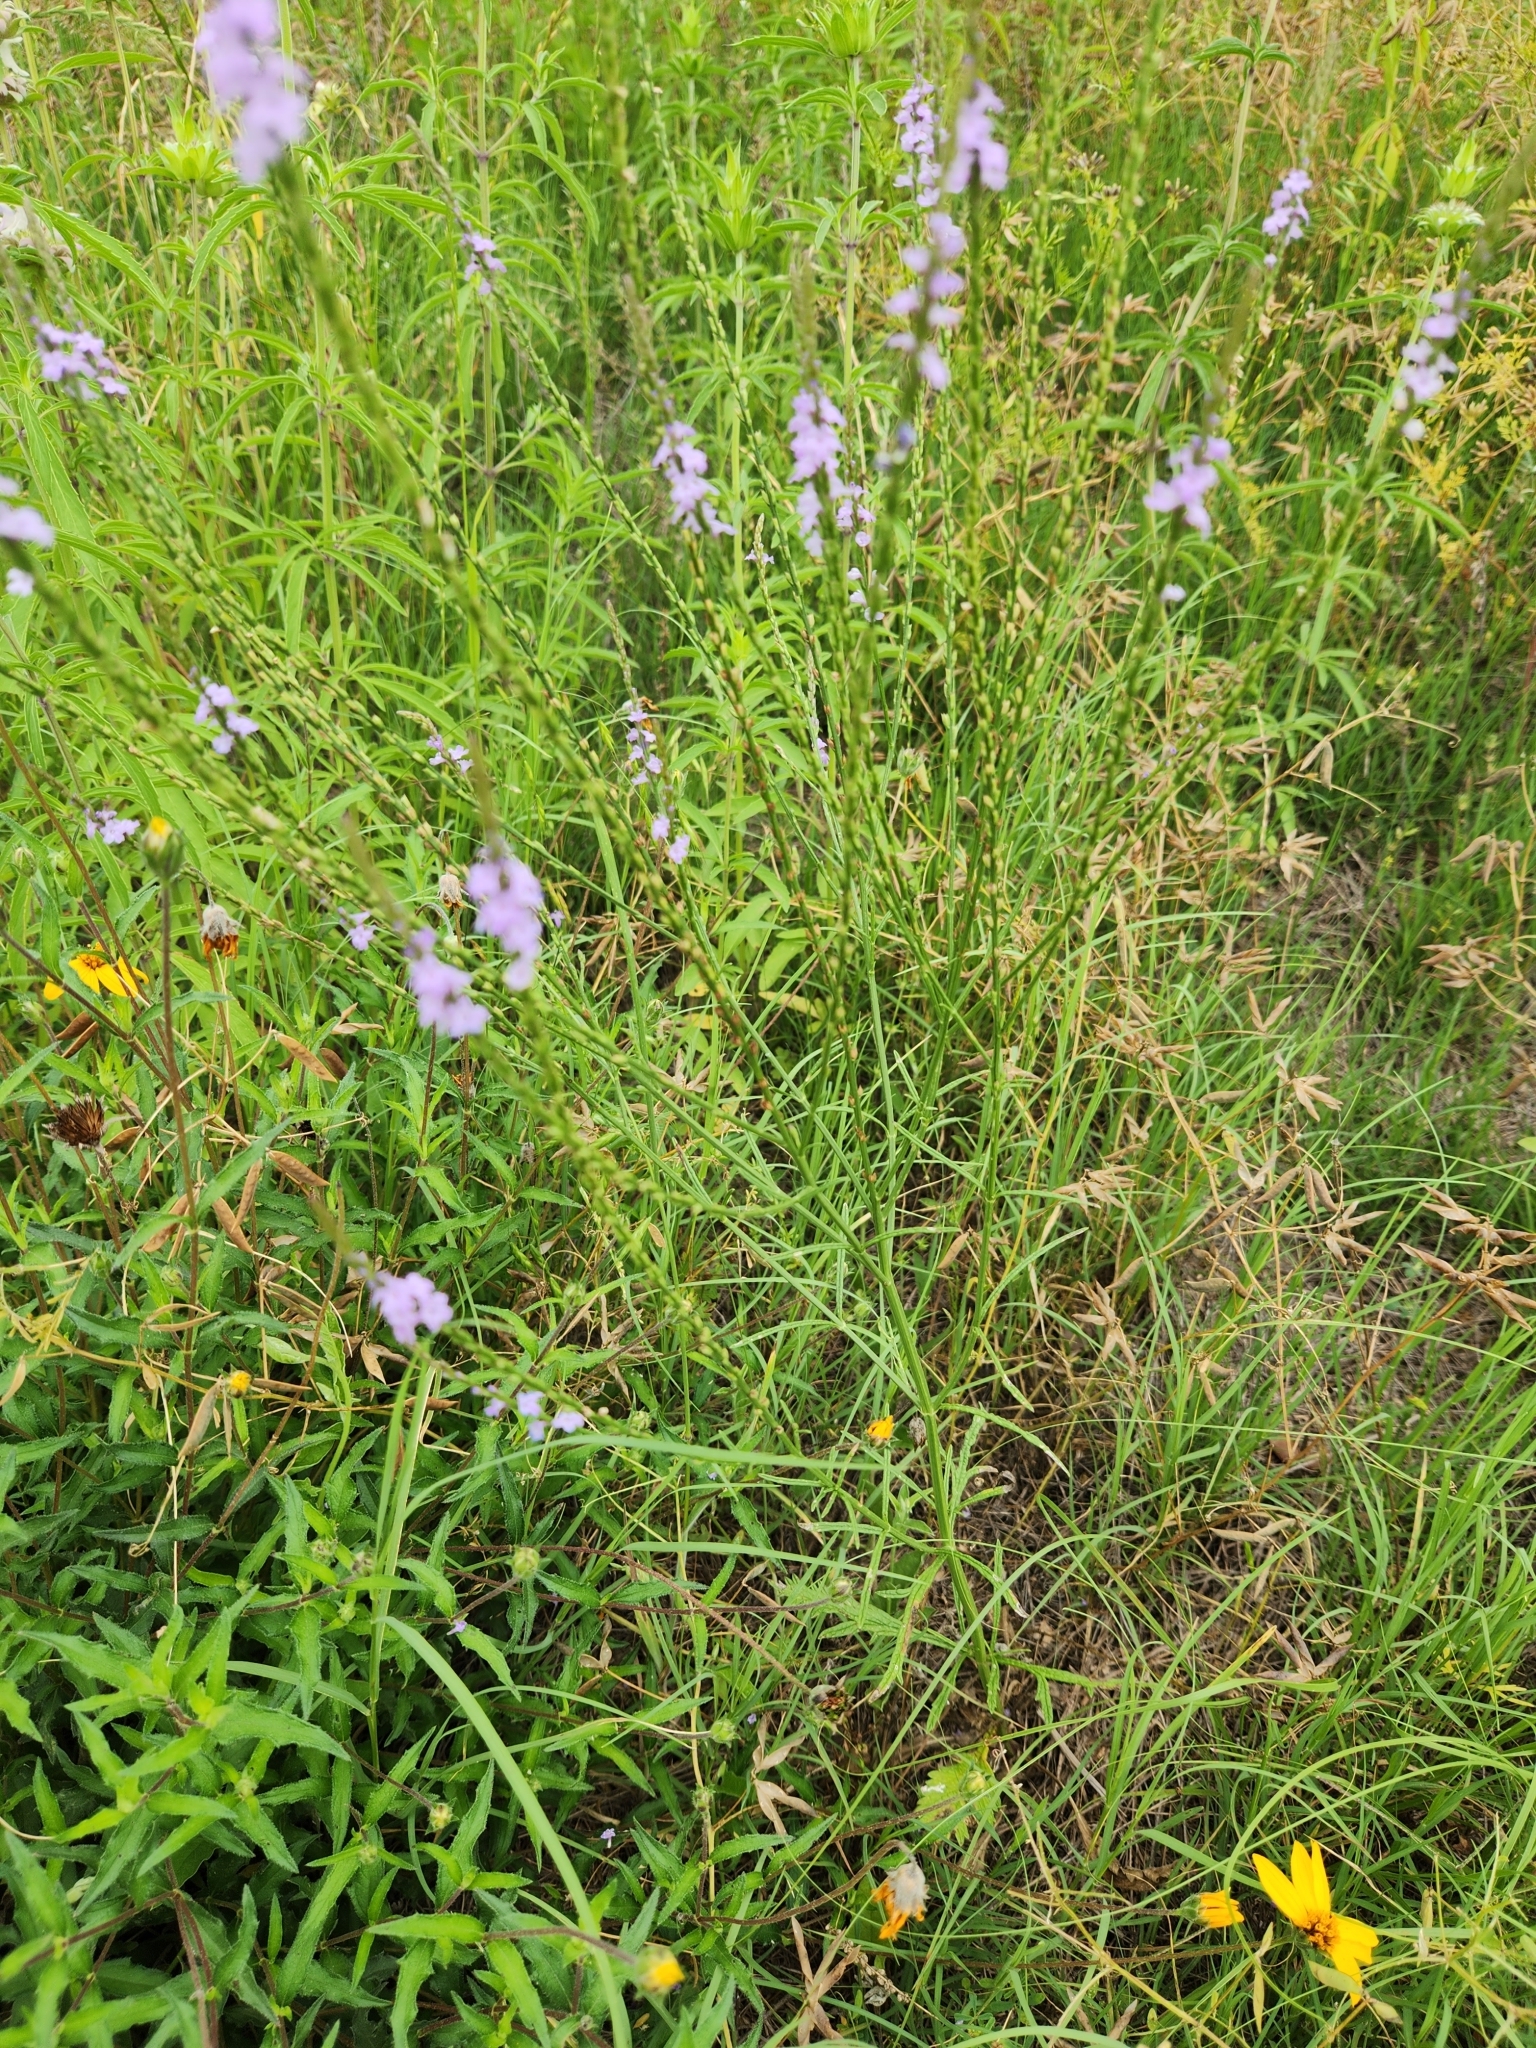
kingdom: Plantae
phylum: Tracheophyta
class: Magnoliopsida
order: Lamiales
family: Verbenaceae
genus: Verbena
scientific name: Verbena halei
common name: Texas vervain
